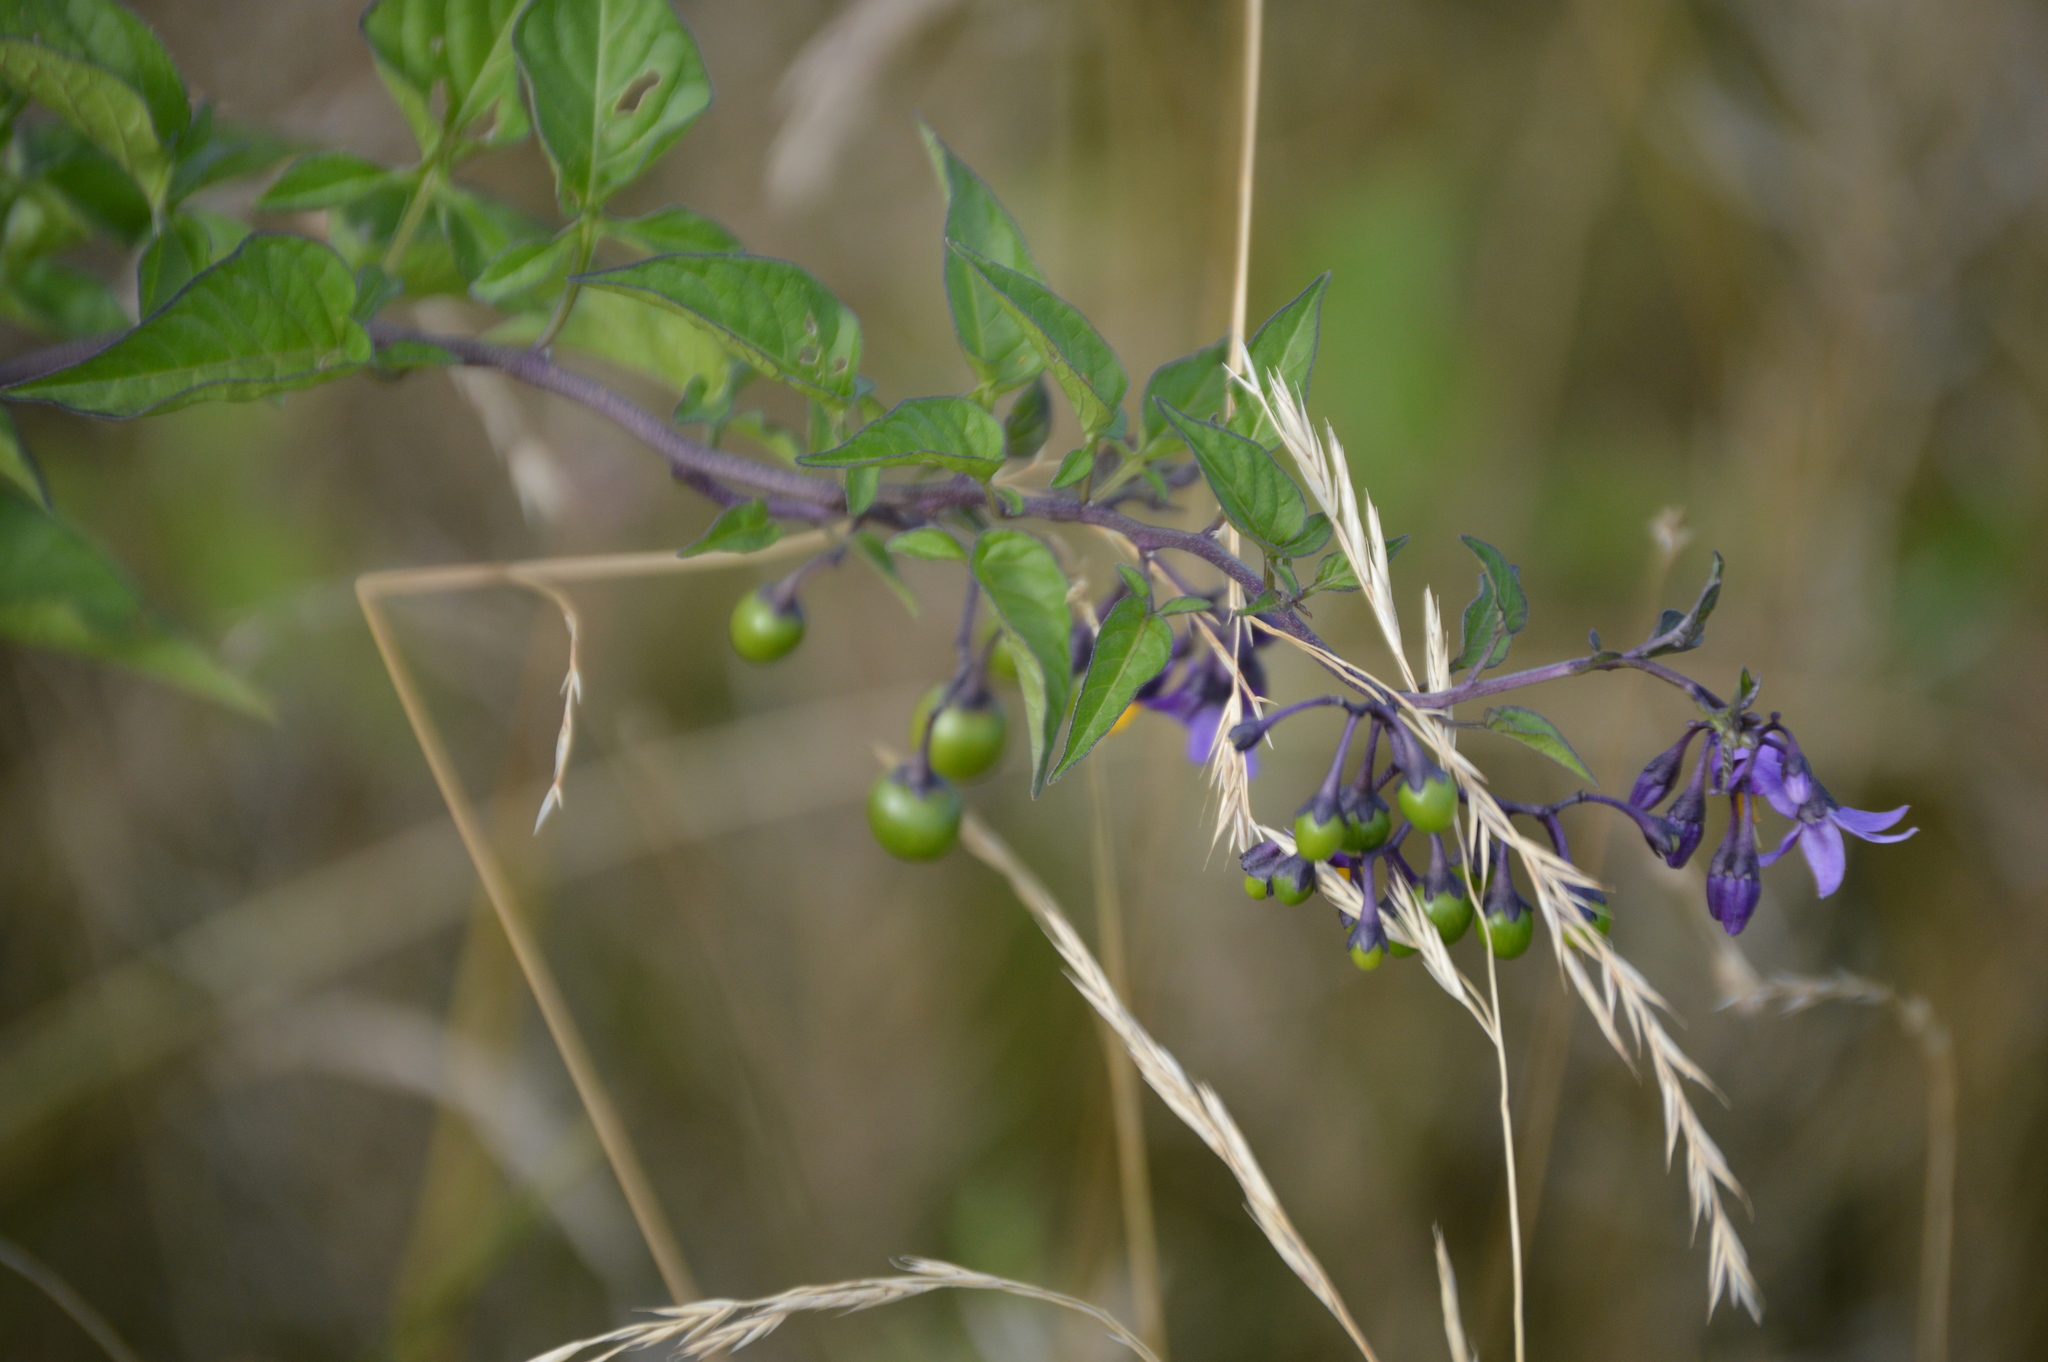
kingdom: Plantae
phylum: Tracheophyta
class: Magnoliopsida
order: Solanales
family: Solanaceae
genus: Solanum
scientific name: Solanum dulcamara
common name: Climbing nightshade
